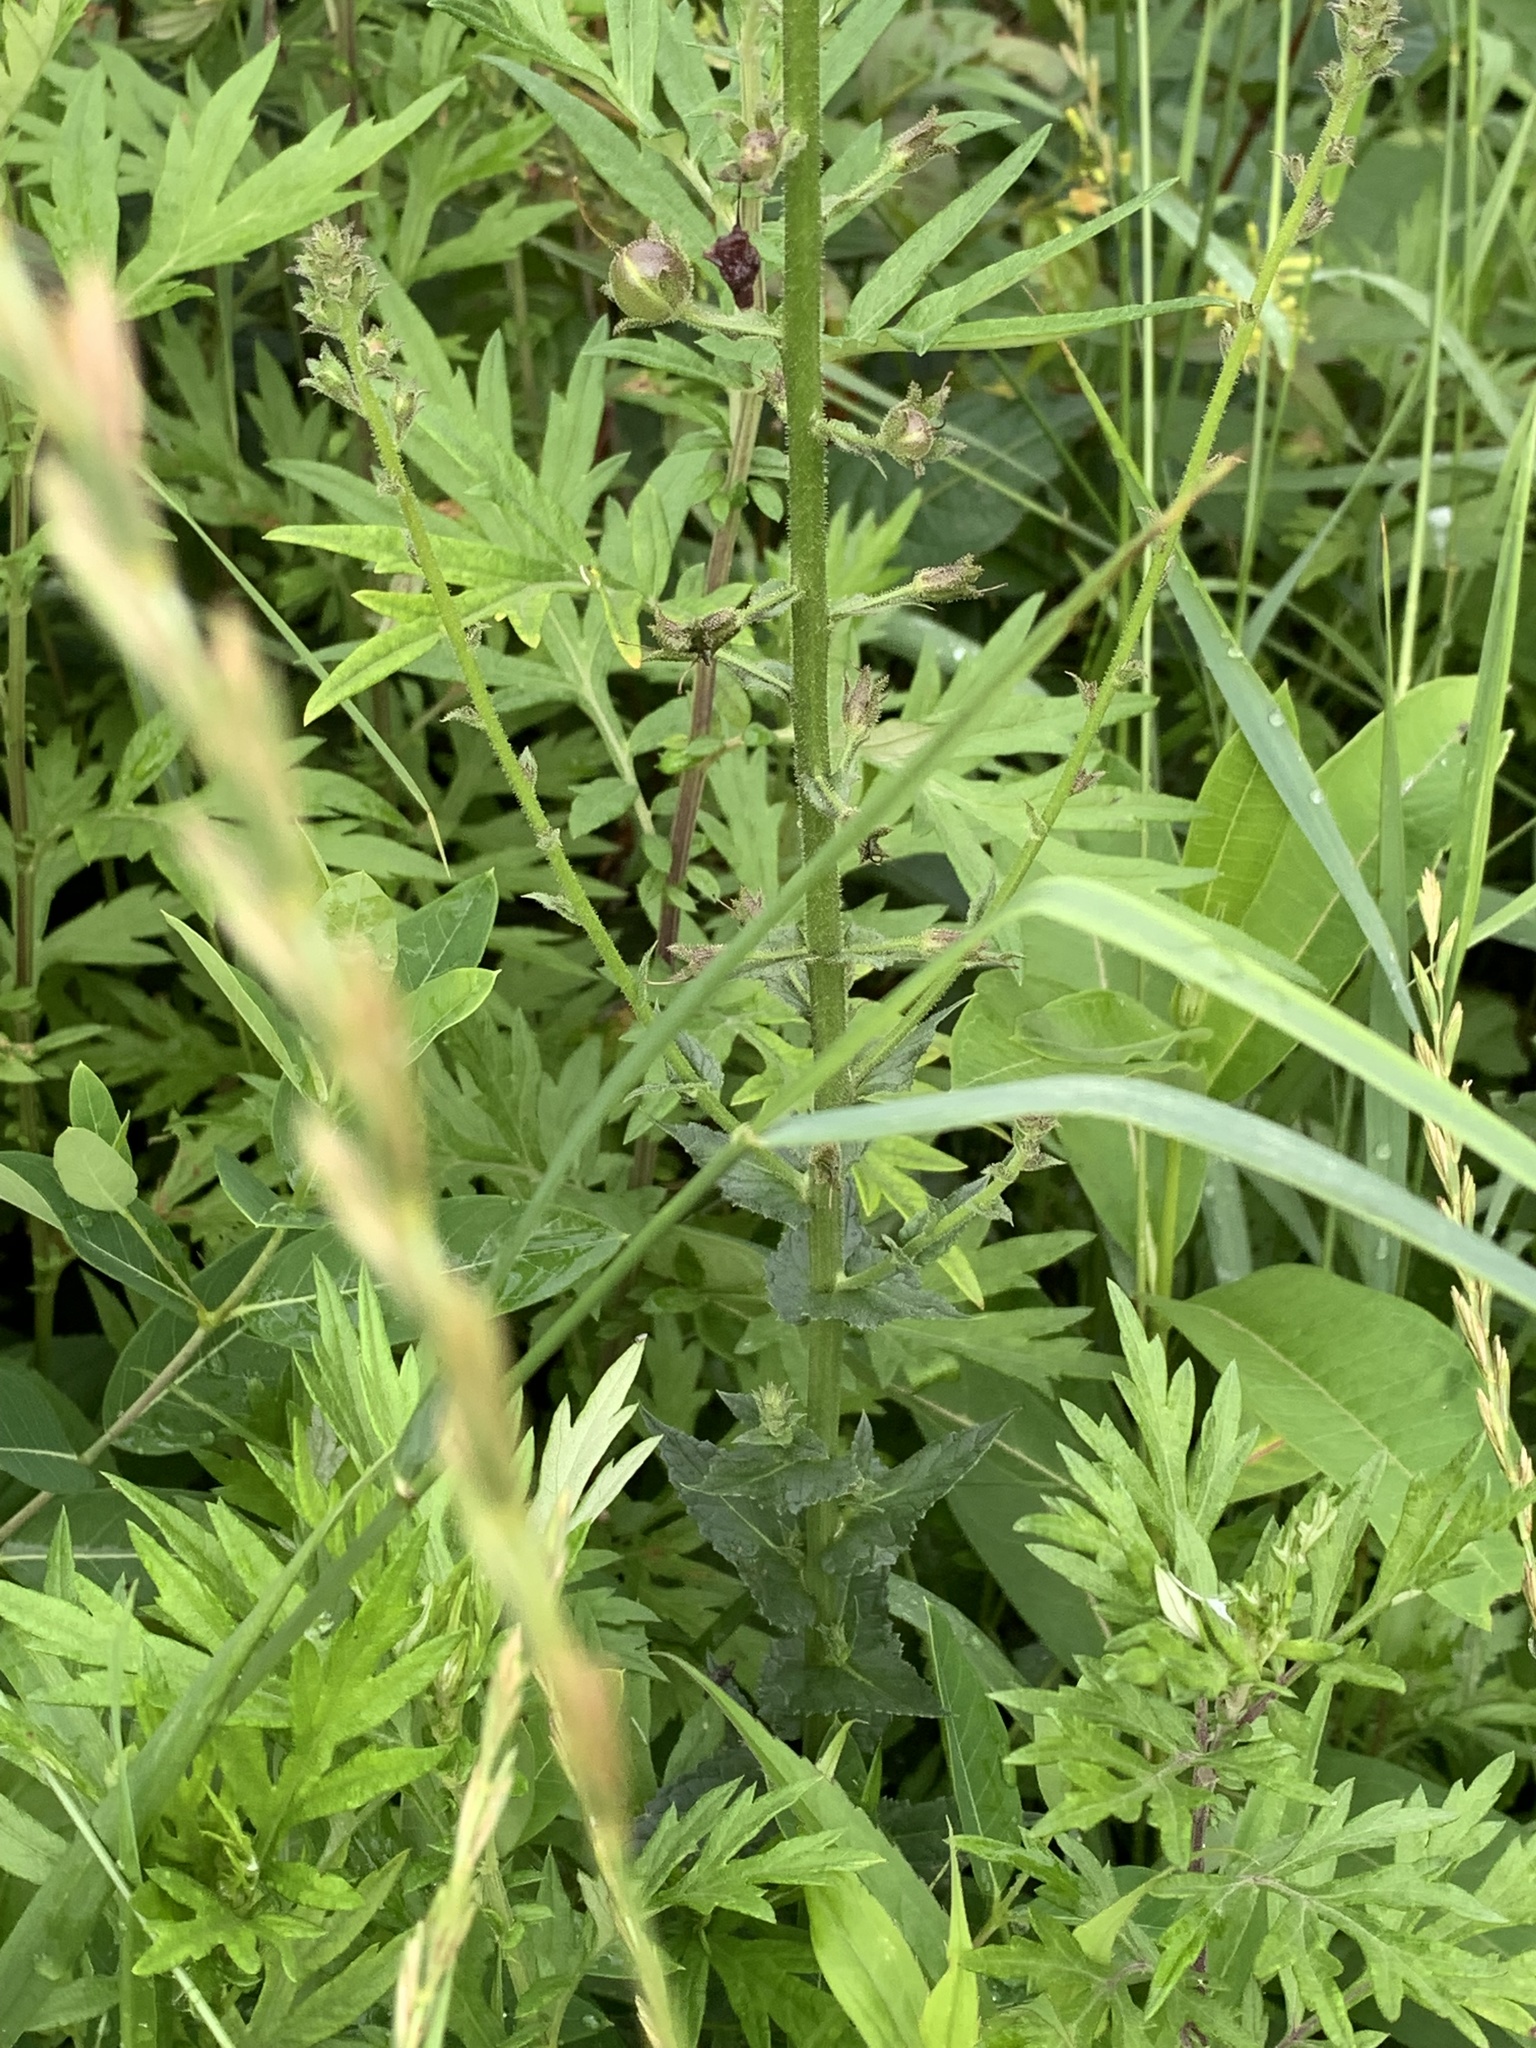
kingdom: Plantae
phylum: Tracheophyta
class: Magnoliopsida
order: Lamiales
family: Scrophulariaceae
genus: Verbascum
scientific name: Verbascum blattaria
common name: Moth mullein
